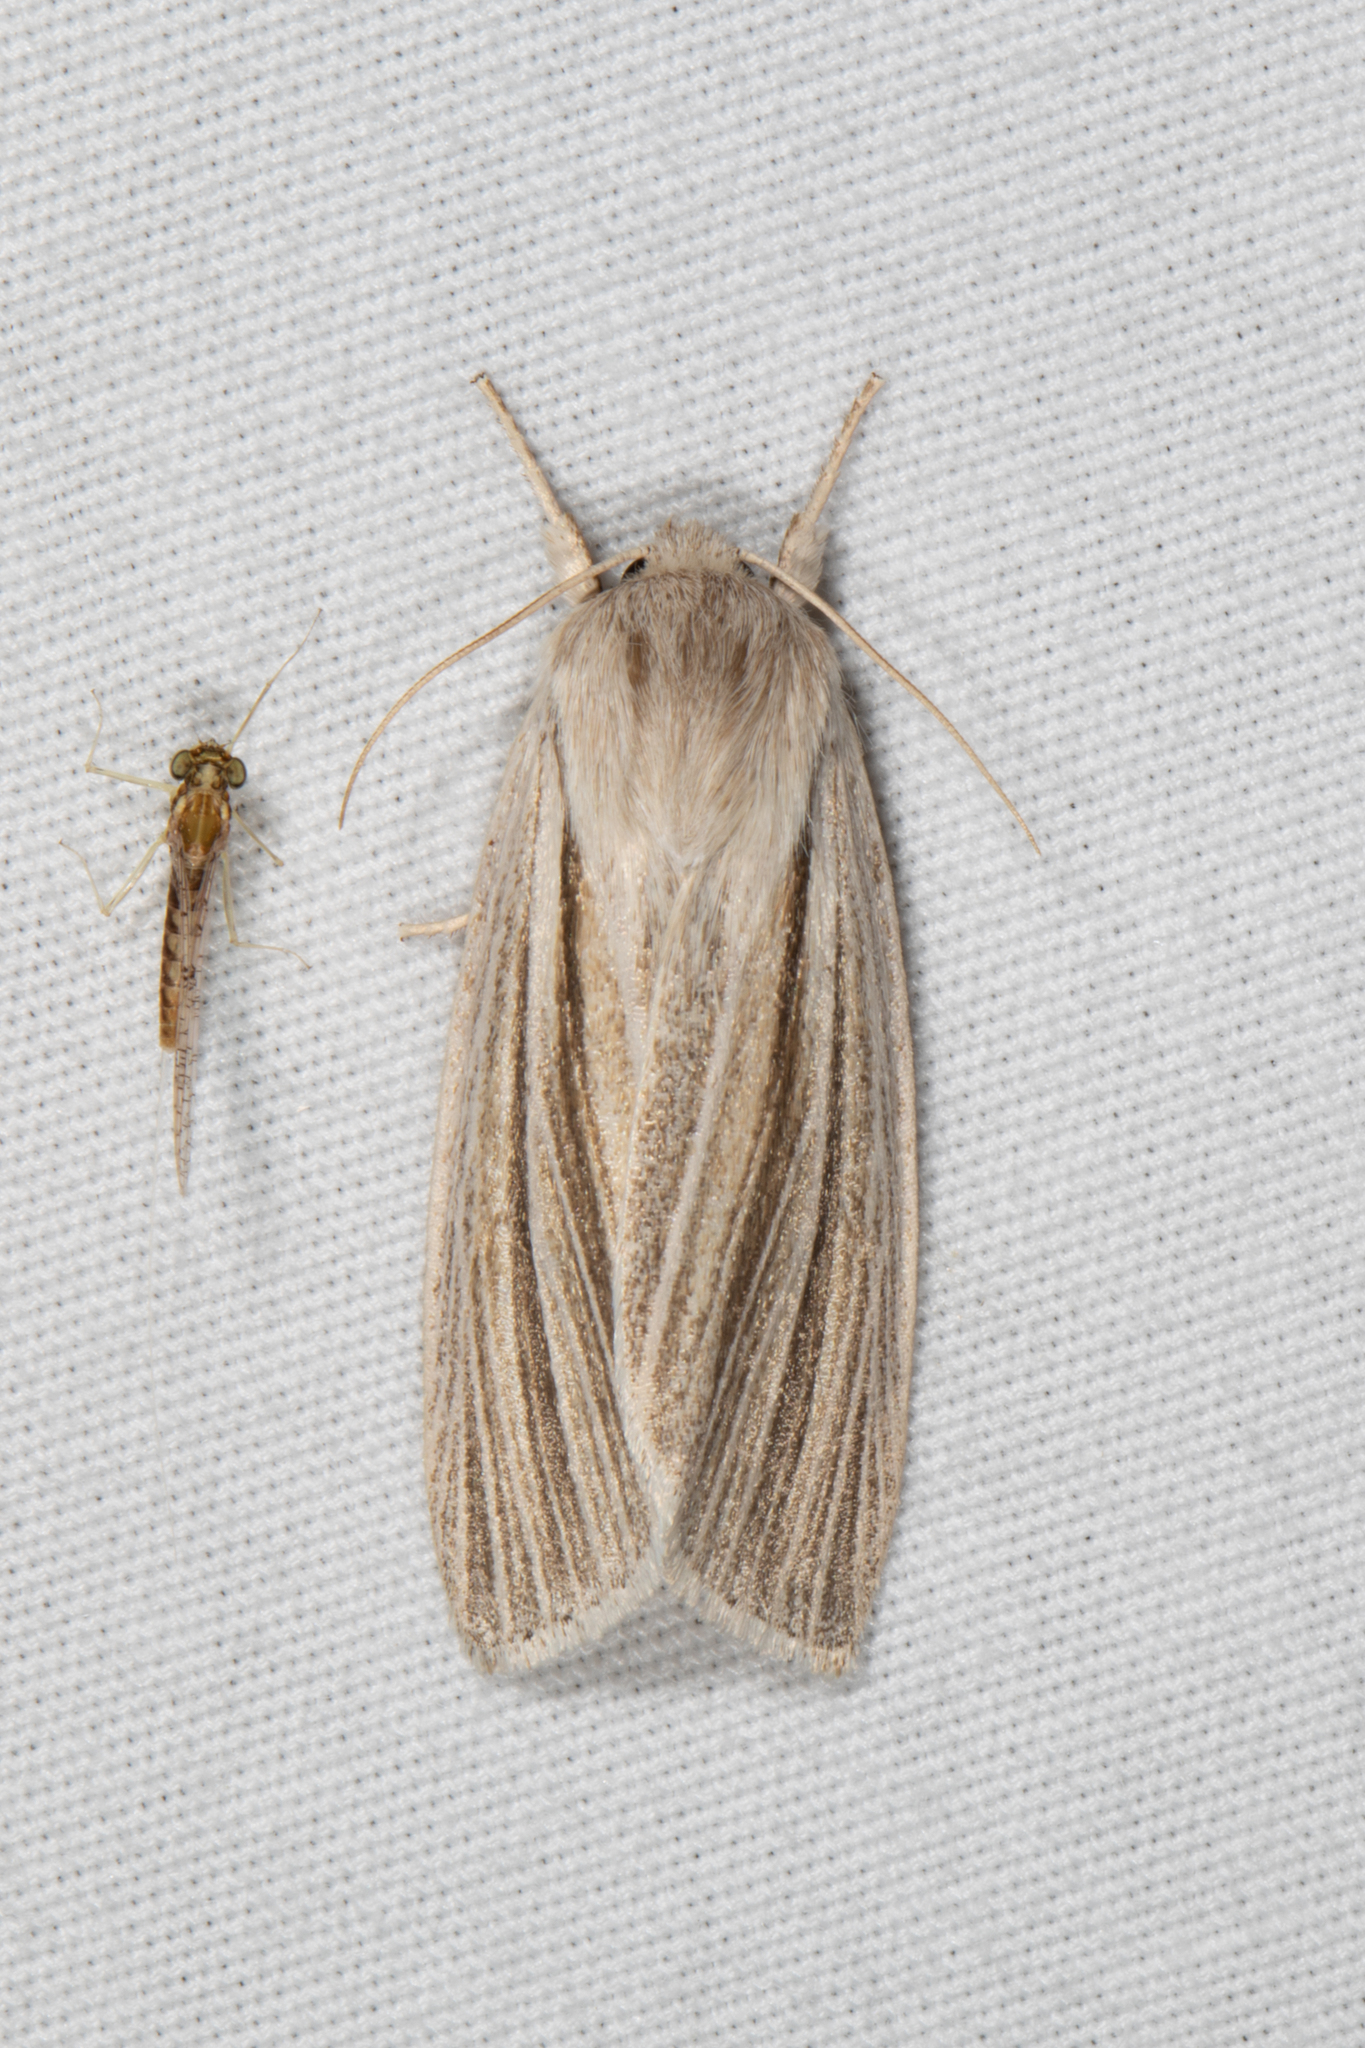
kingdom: Animalia
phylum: Arthropoda
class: Insecta
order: Lepidoptera
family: Noctuidae
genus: Acronicta
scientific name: Acronicta insularis
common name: Henry's marsh moth
